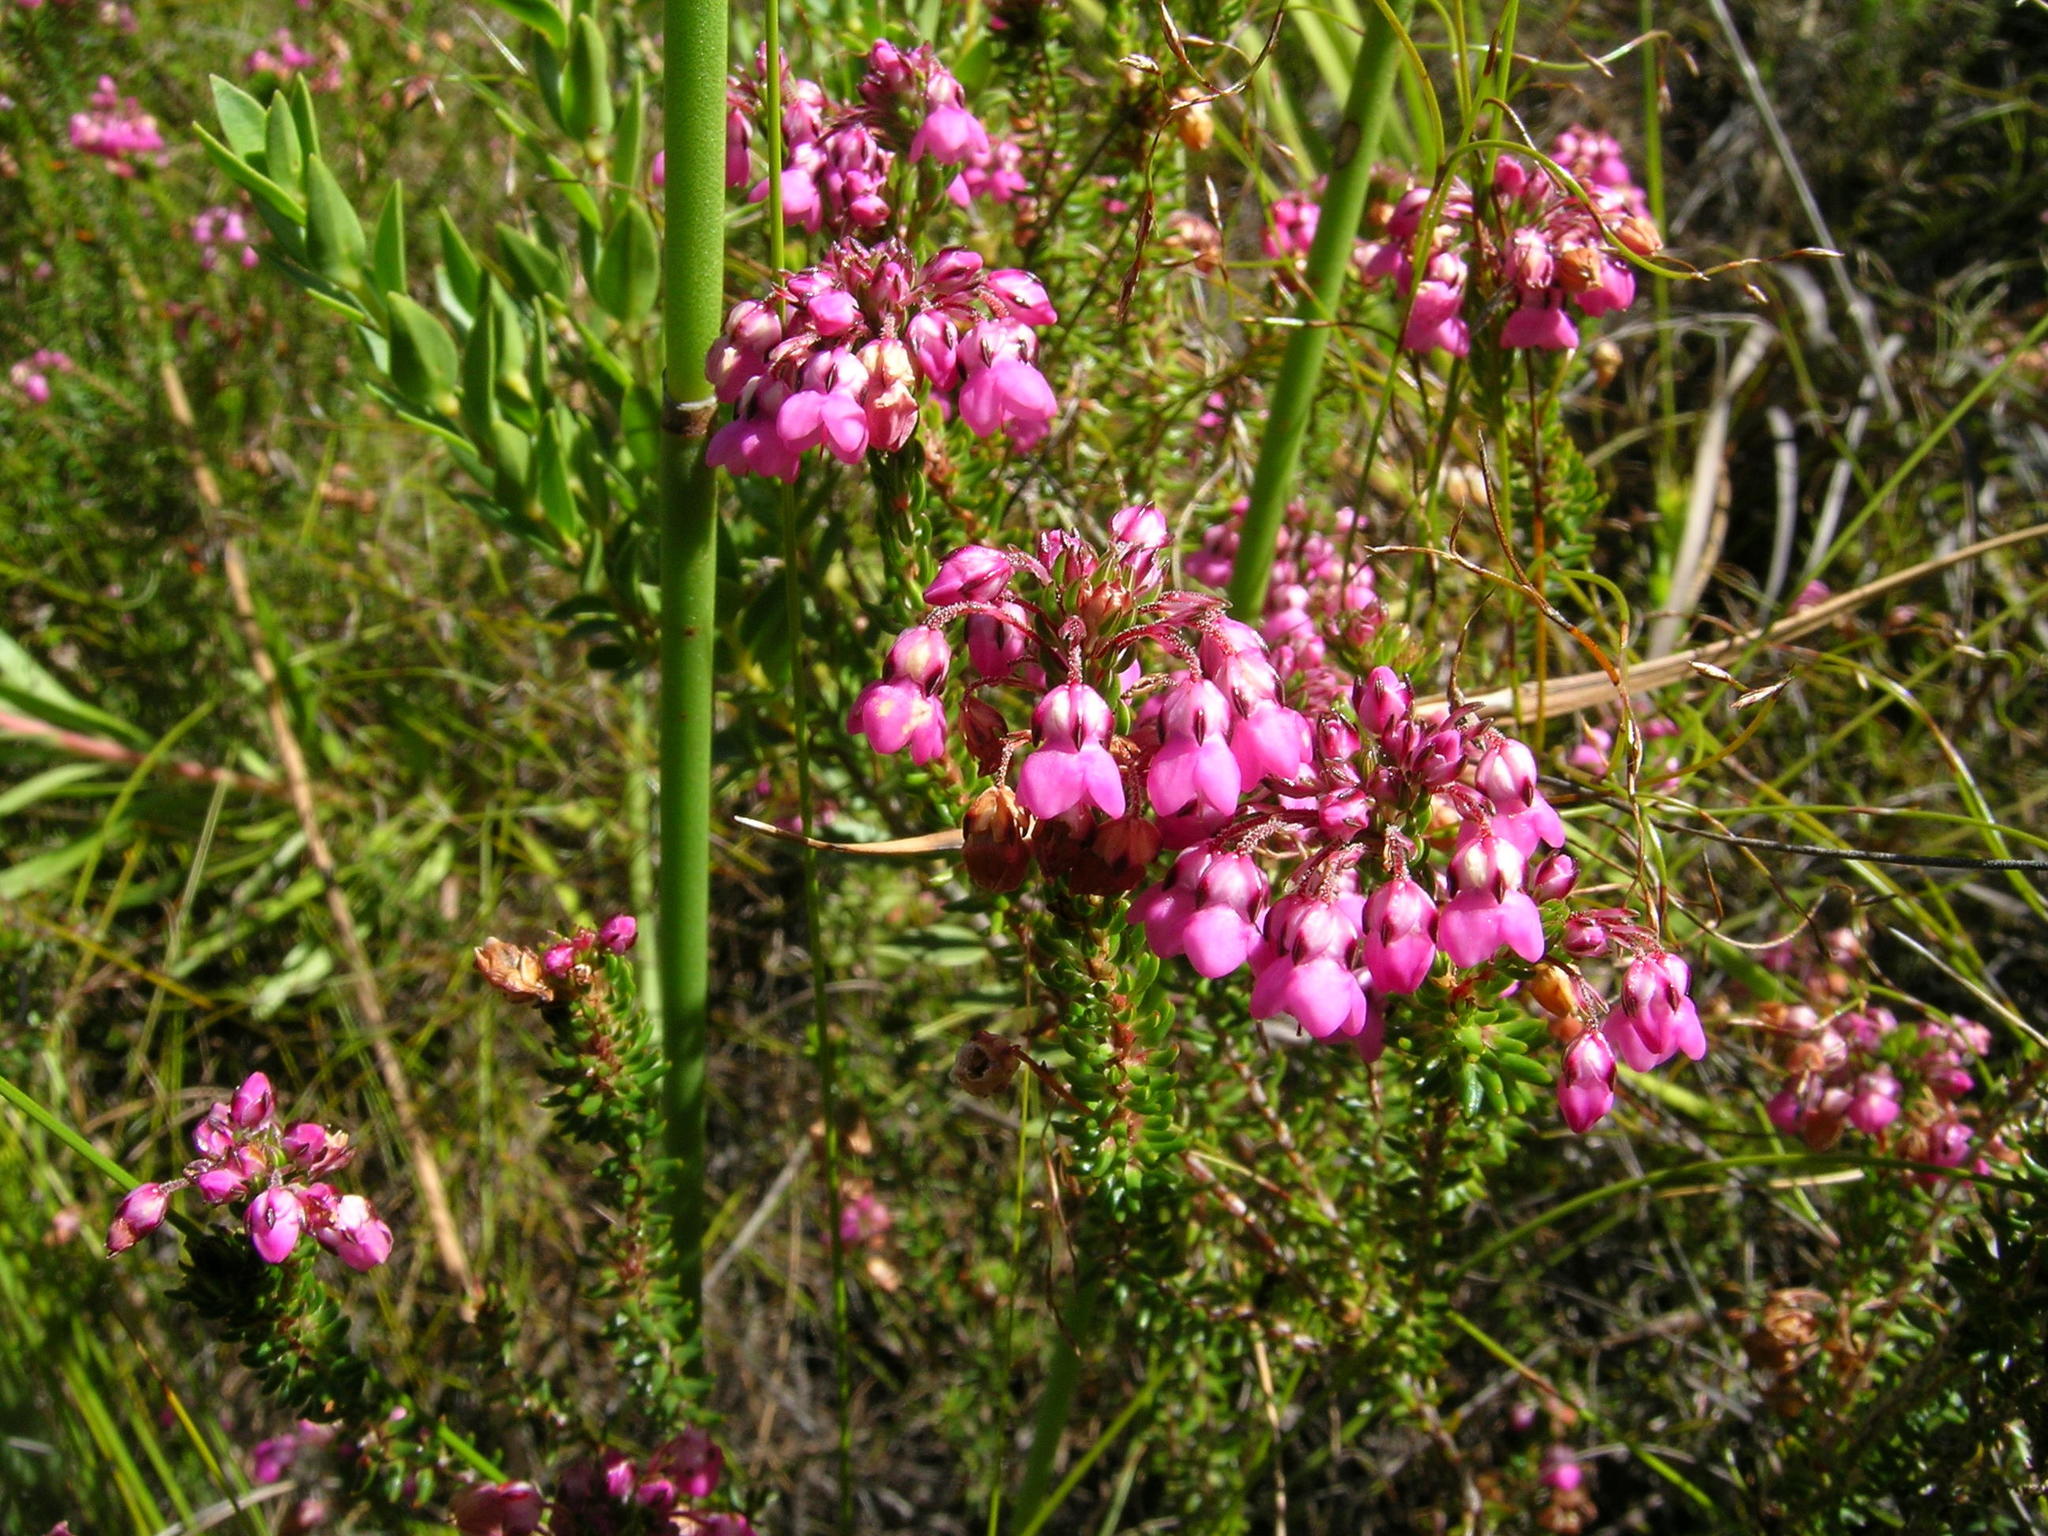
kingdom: Plantae
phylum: Tracheophyta
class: Magnoliopsida
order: Ericales
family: Ericaceae
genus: Erica
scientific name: Erica cubica
